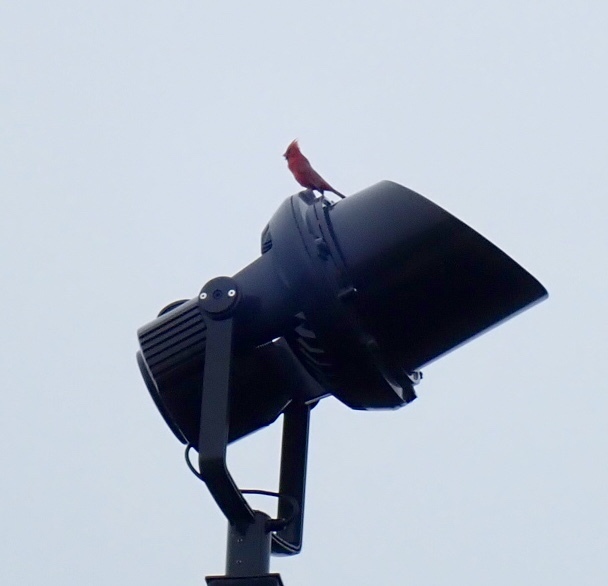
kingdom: Animalia
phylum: Chordata
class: Aves
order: Passeriformes
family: Cardinalidae
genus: Cardinalis
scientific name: Cardinalis cardinalis
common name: Northern cardinal
